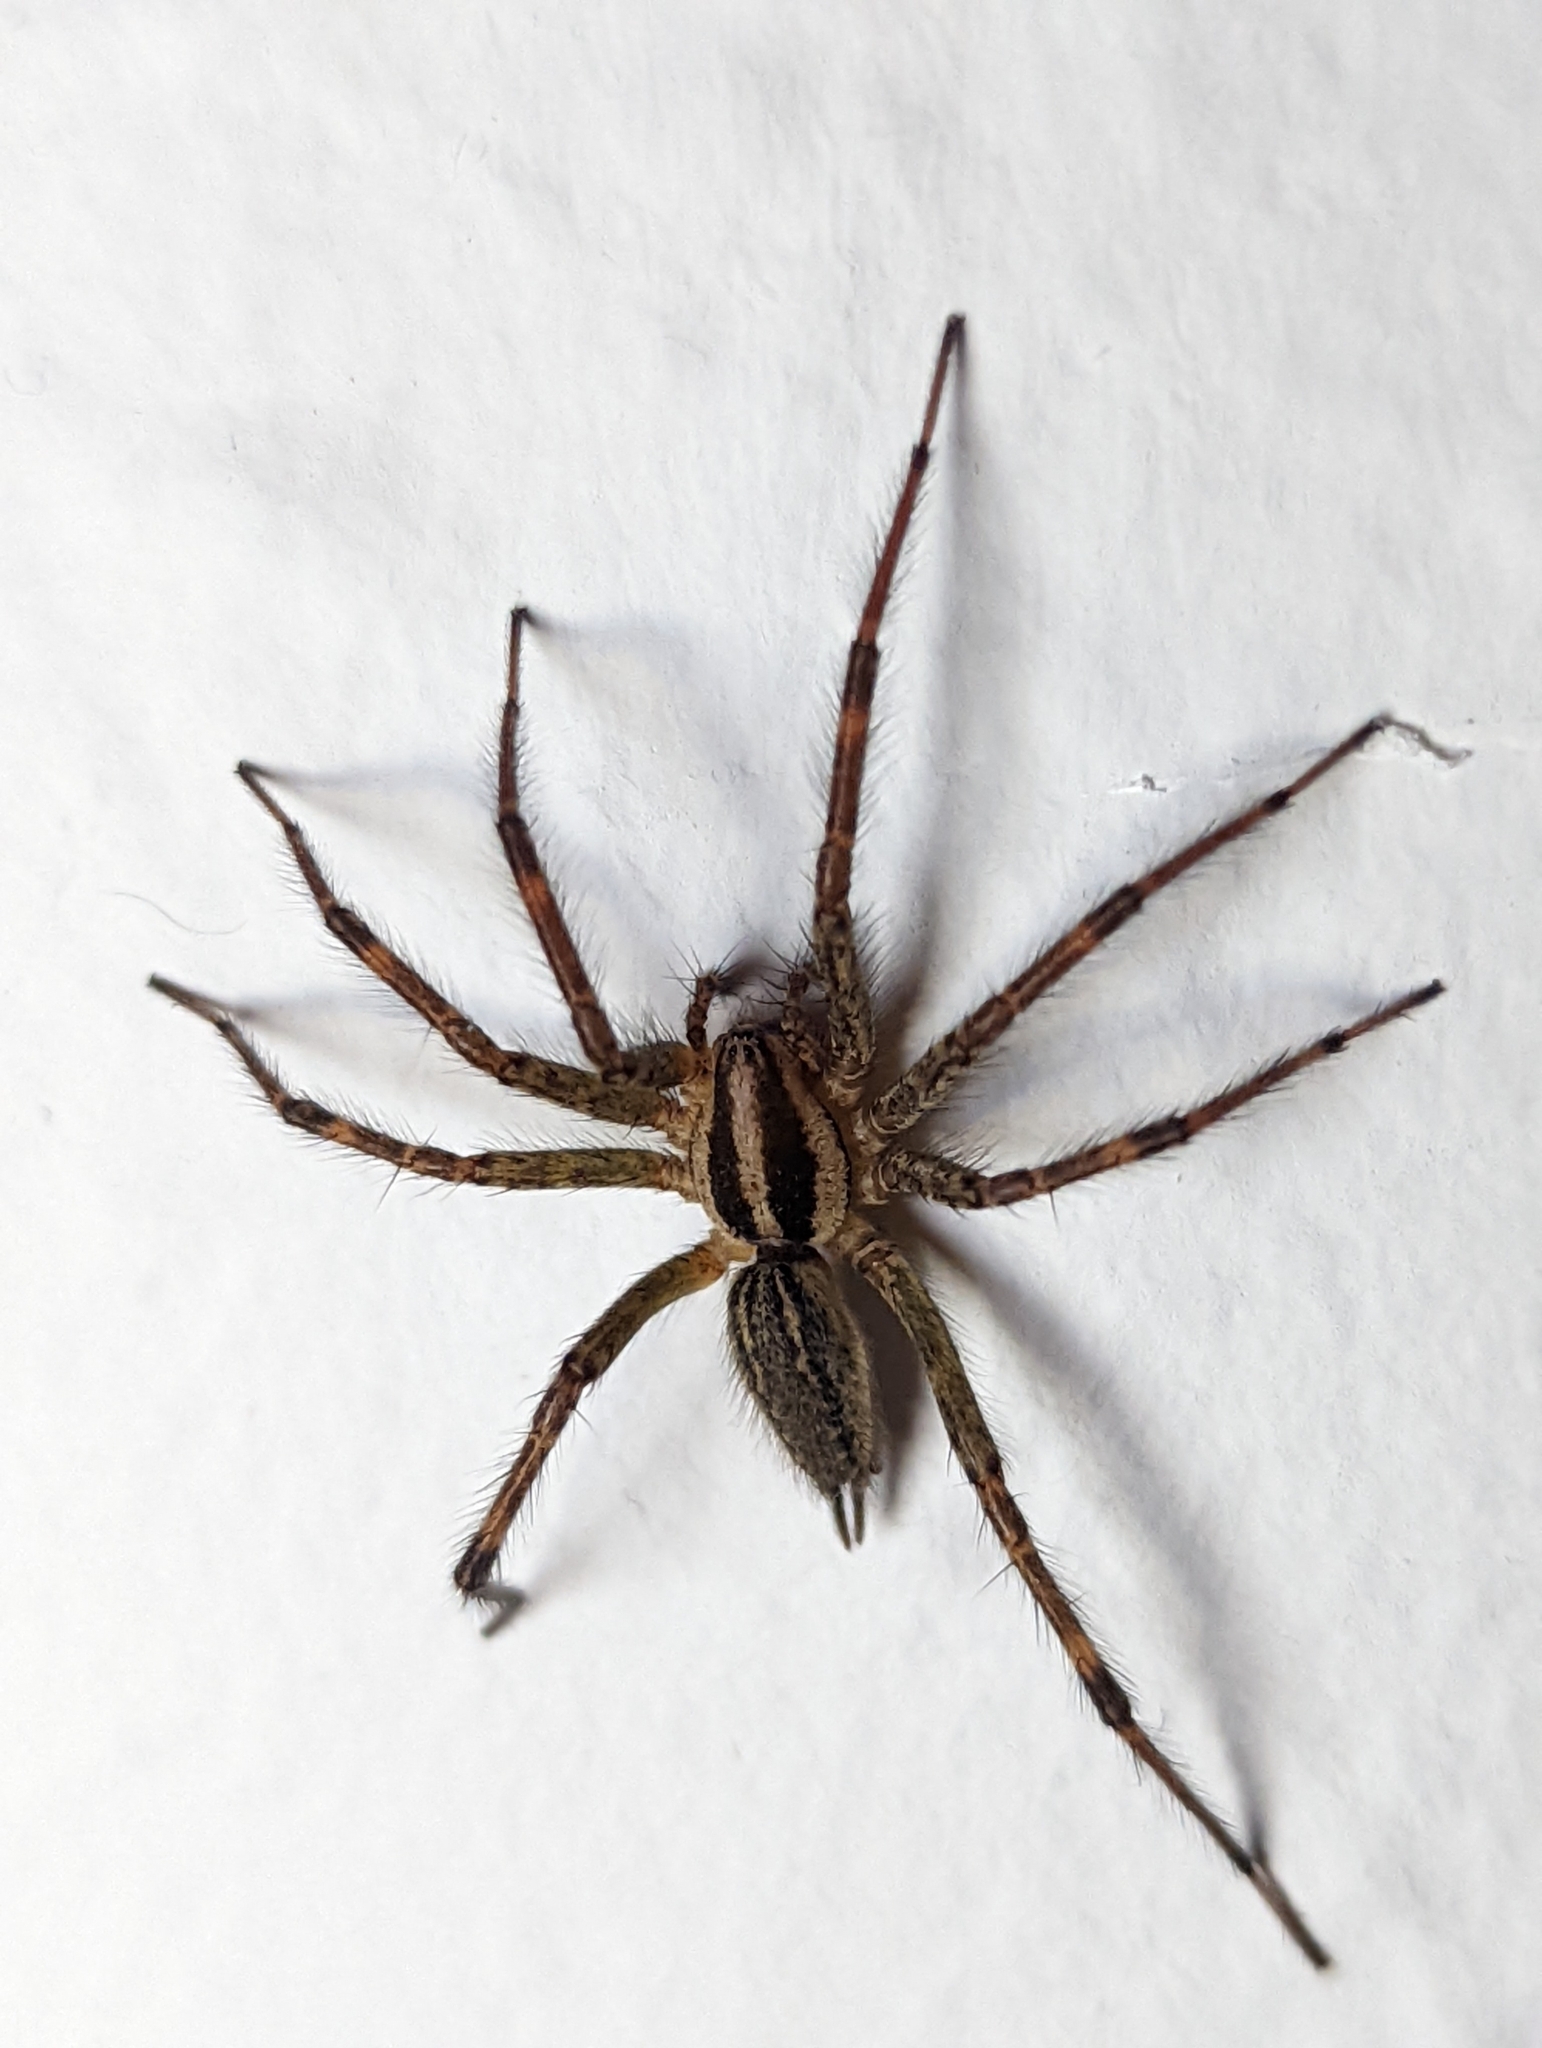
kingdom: Animalia
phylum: Arthropoda
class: Arachnida
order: Araneae
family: Agelenidae
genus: Agelenopsis
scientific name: Agelenopsis
